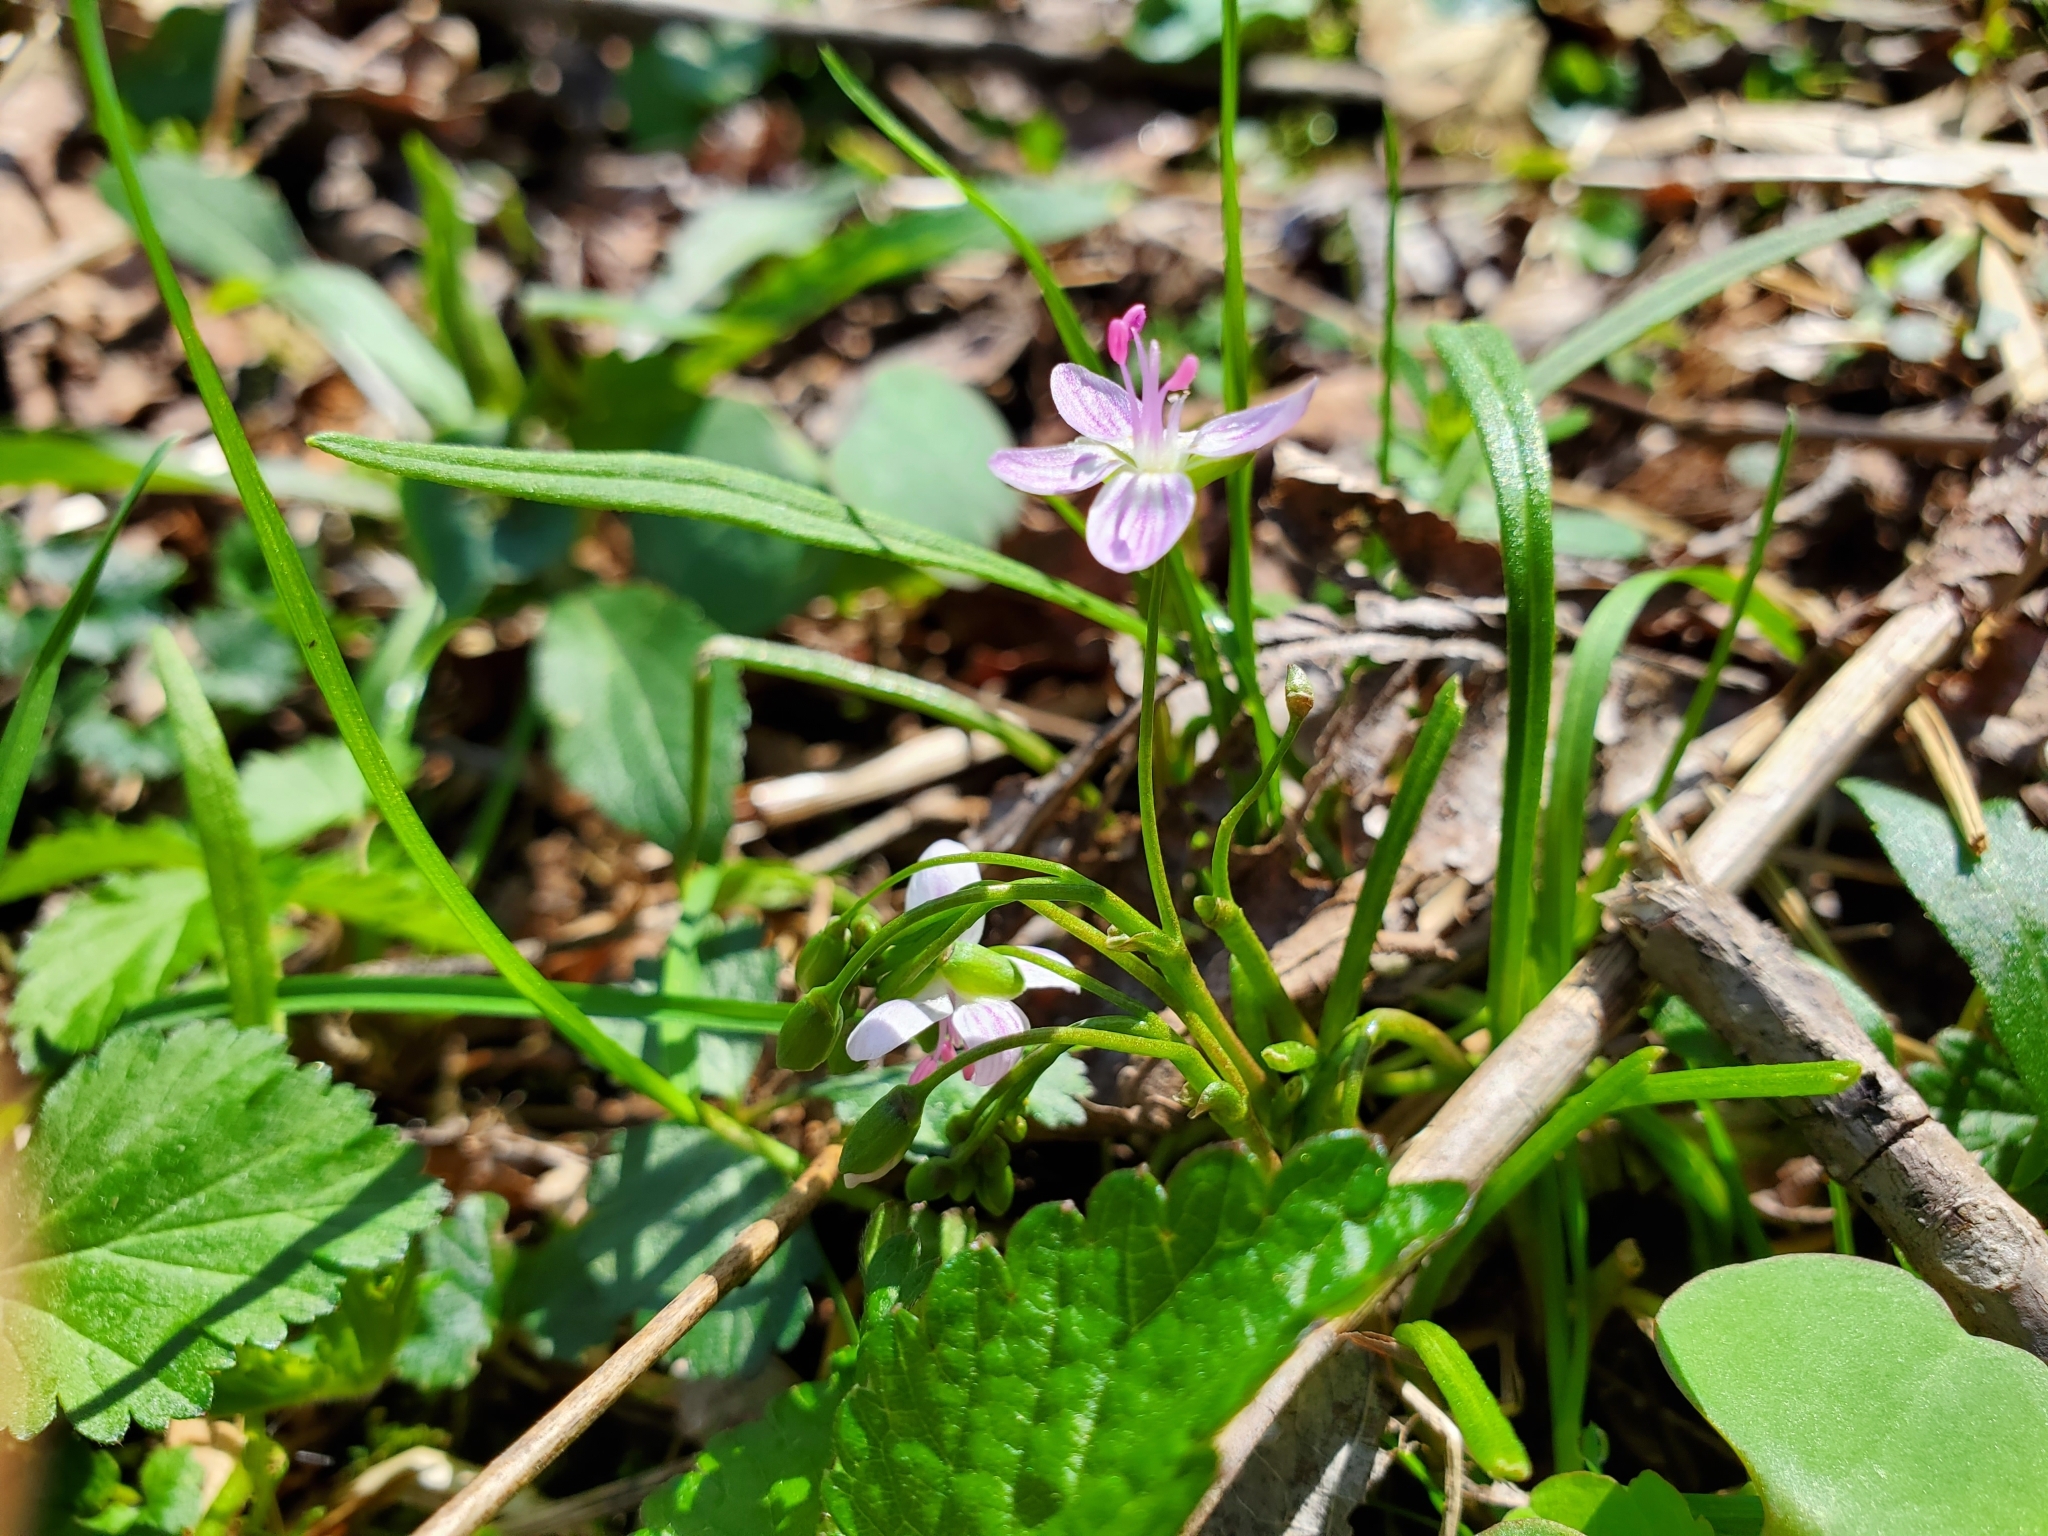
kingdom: Plantae
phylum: Tracheophyta
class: Magnoliopsida
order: Caryophyllales
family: Montiaceae
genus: Claytonia
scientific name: Claytonia virginica
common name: Virginia springbeauty
